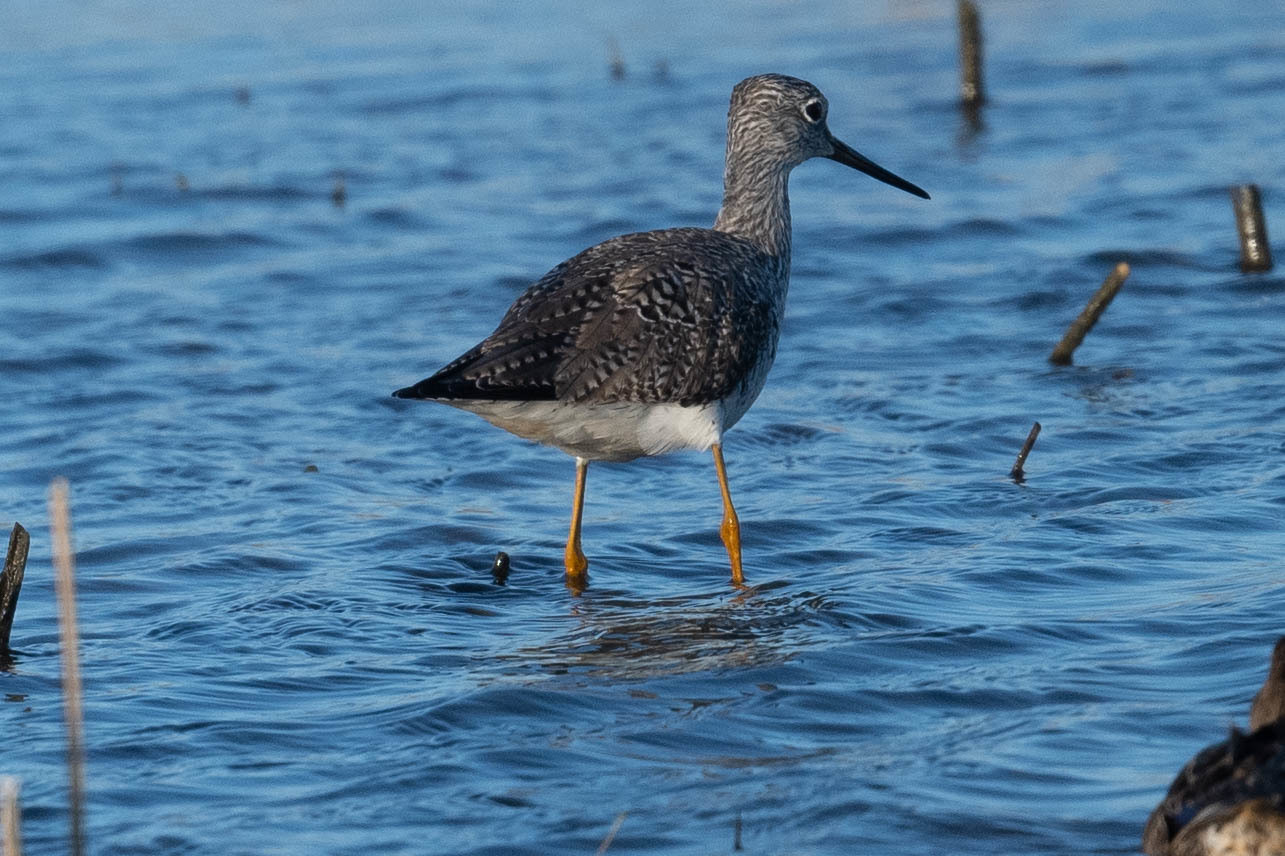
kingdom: Animalia
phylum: Chordata
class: Aves
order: Charadriiformes
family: Scolopacidae
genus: Tringa
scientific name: Tringa melanoleuca
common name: Greater yellowlegs
